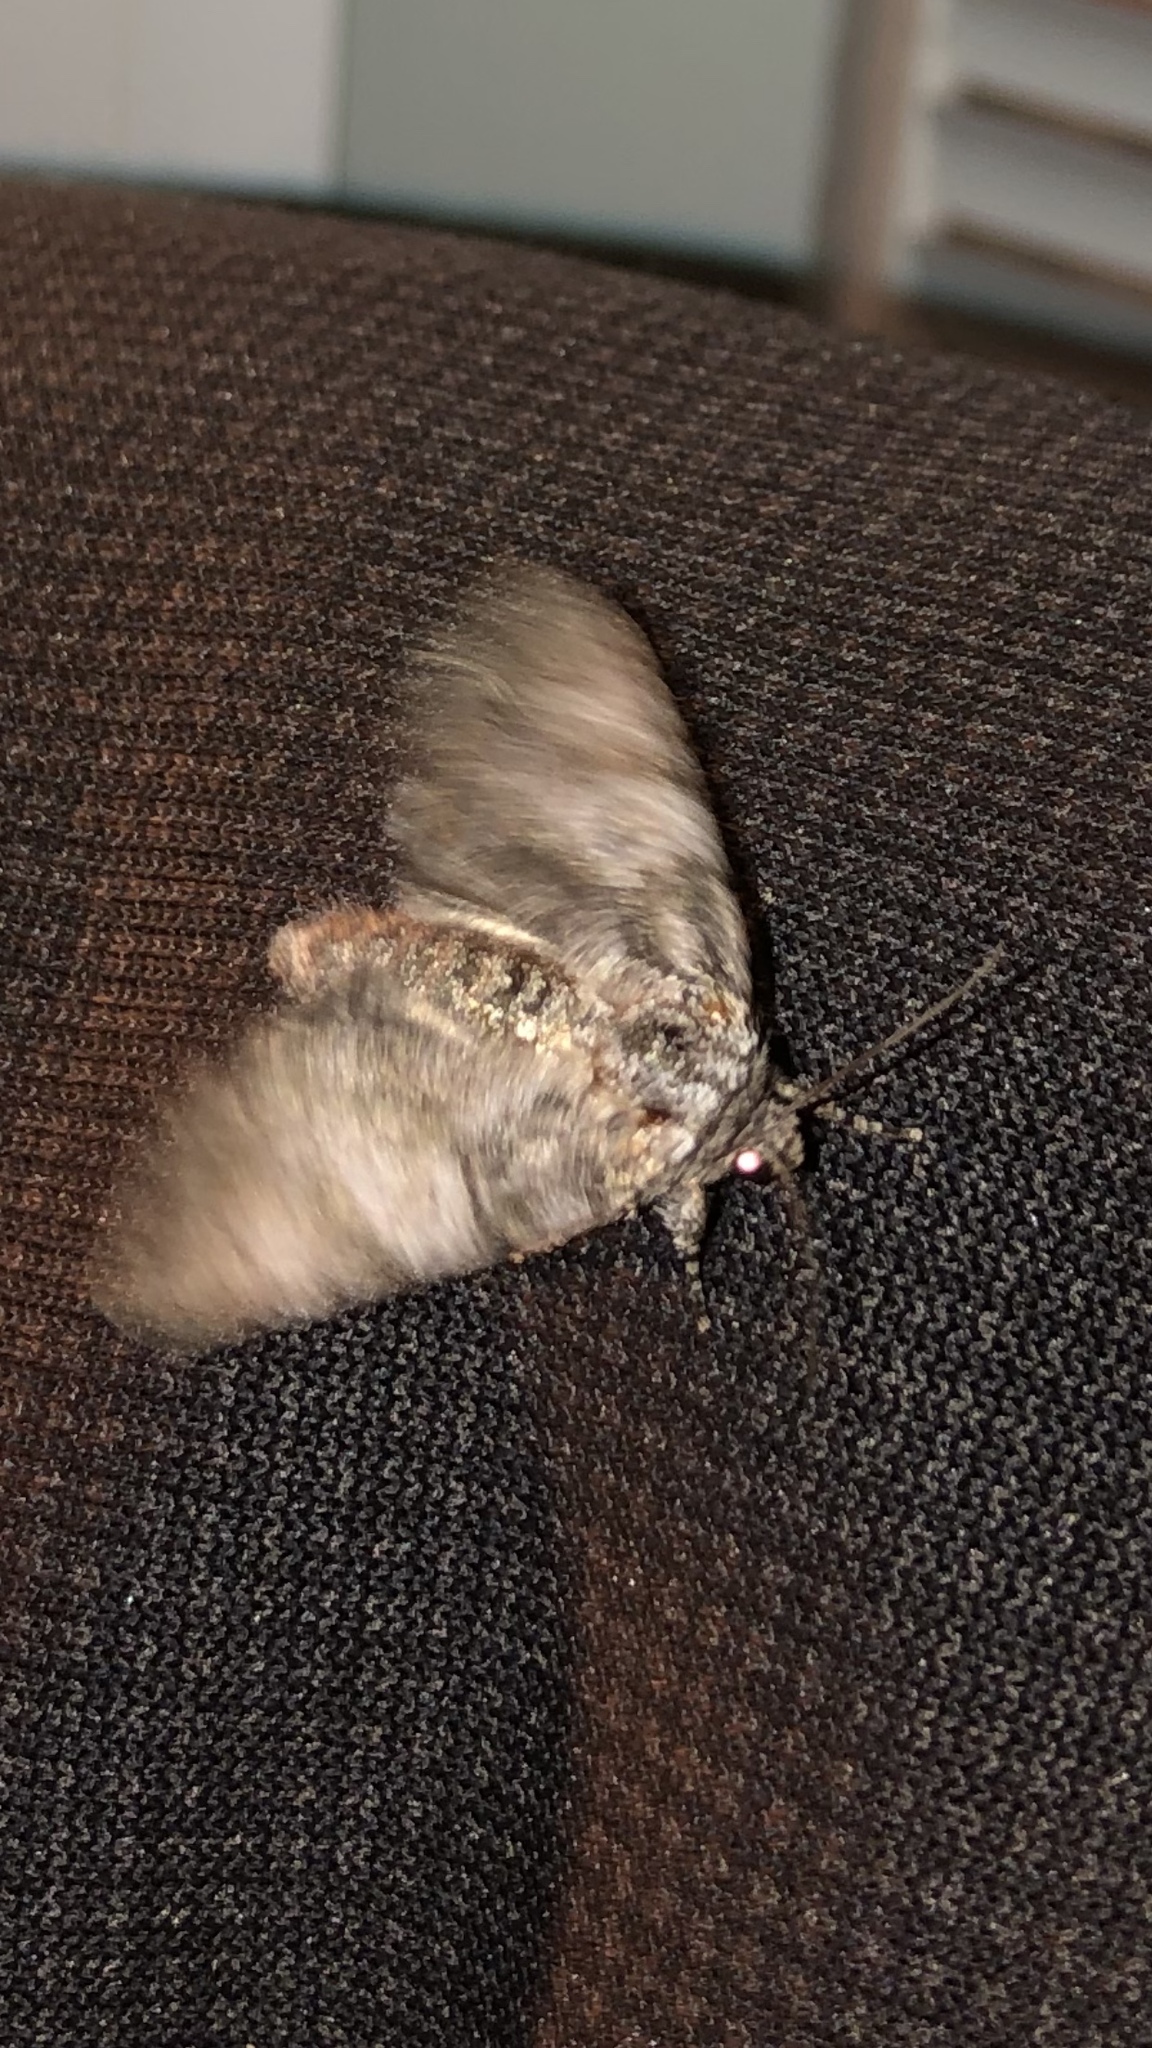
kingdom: Animalia
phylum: Arthropoda
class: Insecta
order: Lepidoptera
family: Noctuidae
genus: Raphia
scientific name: Raphia frater
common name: Brother
